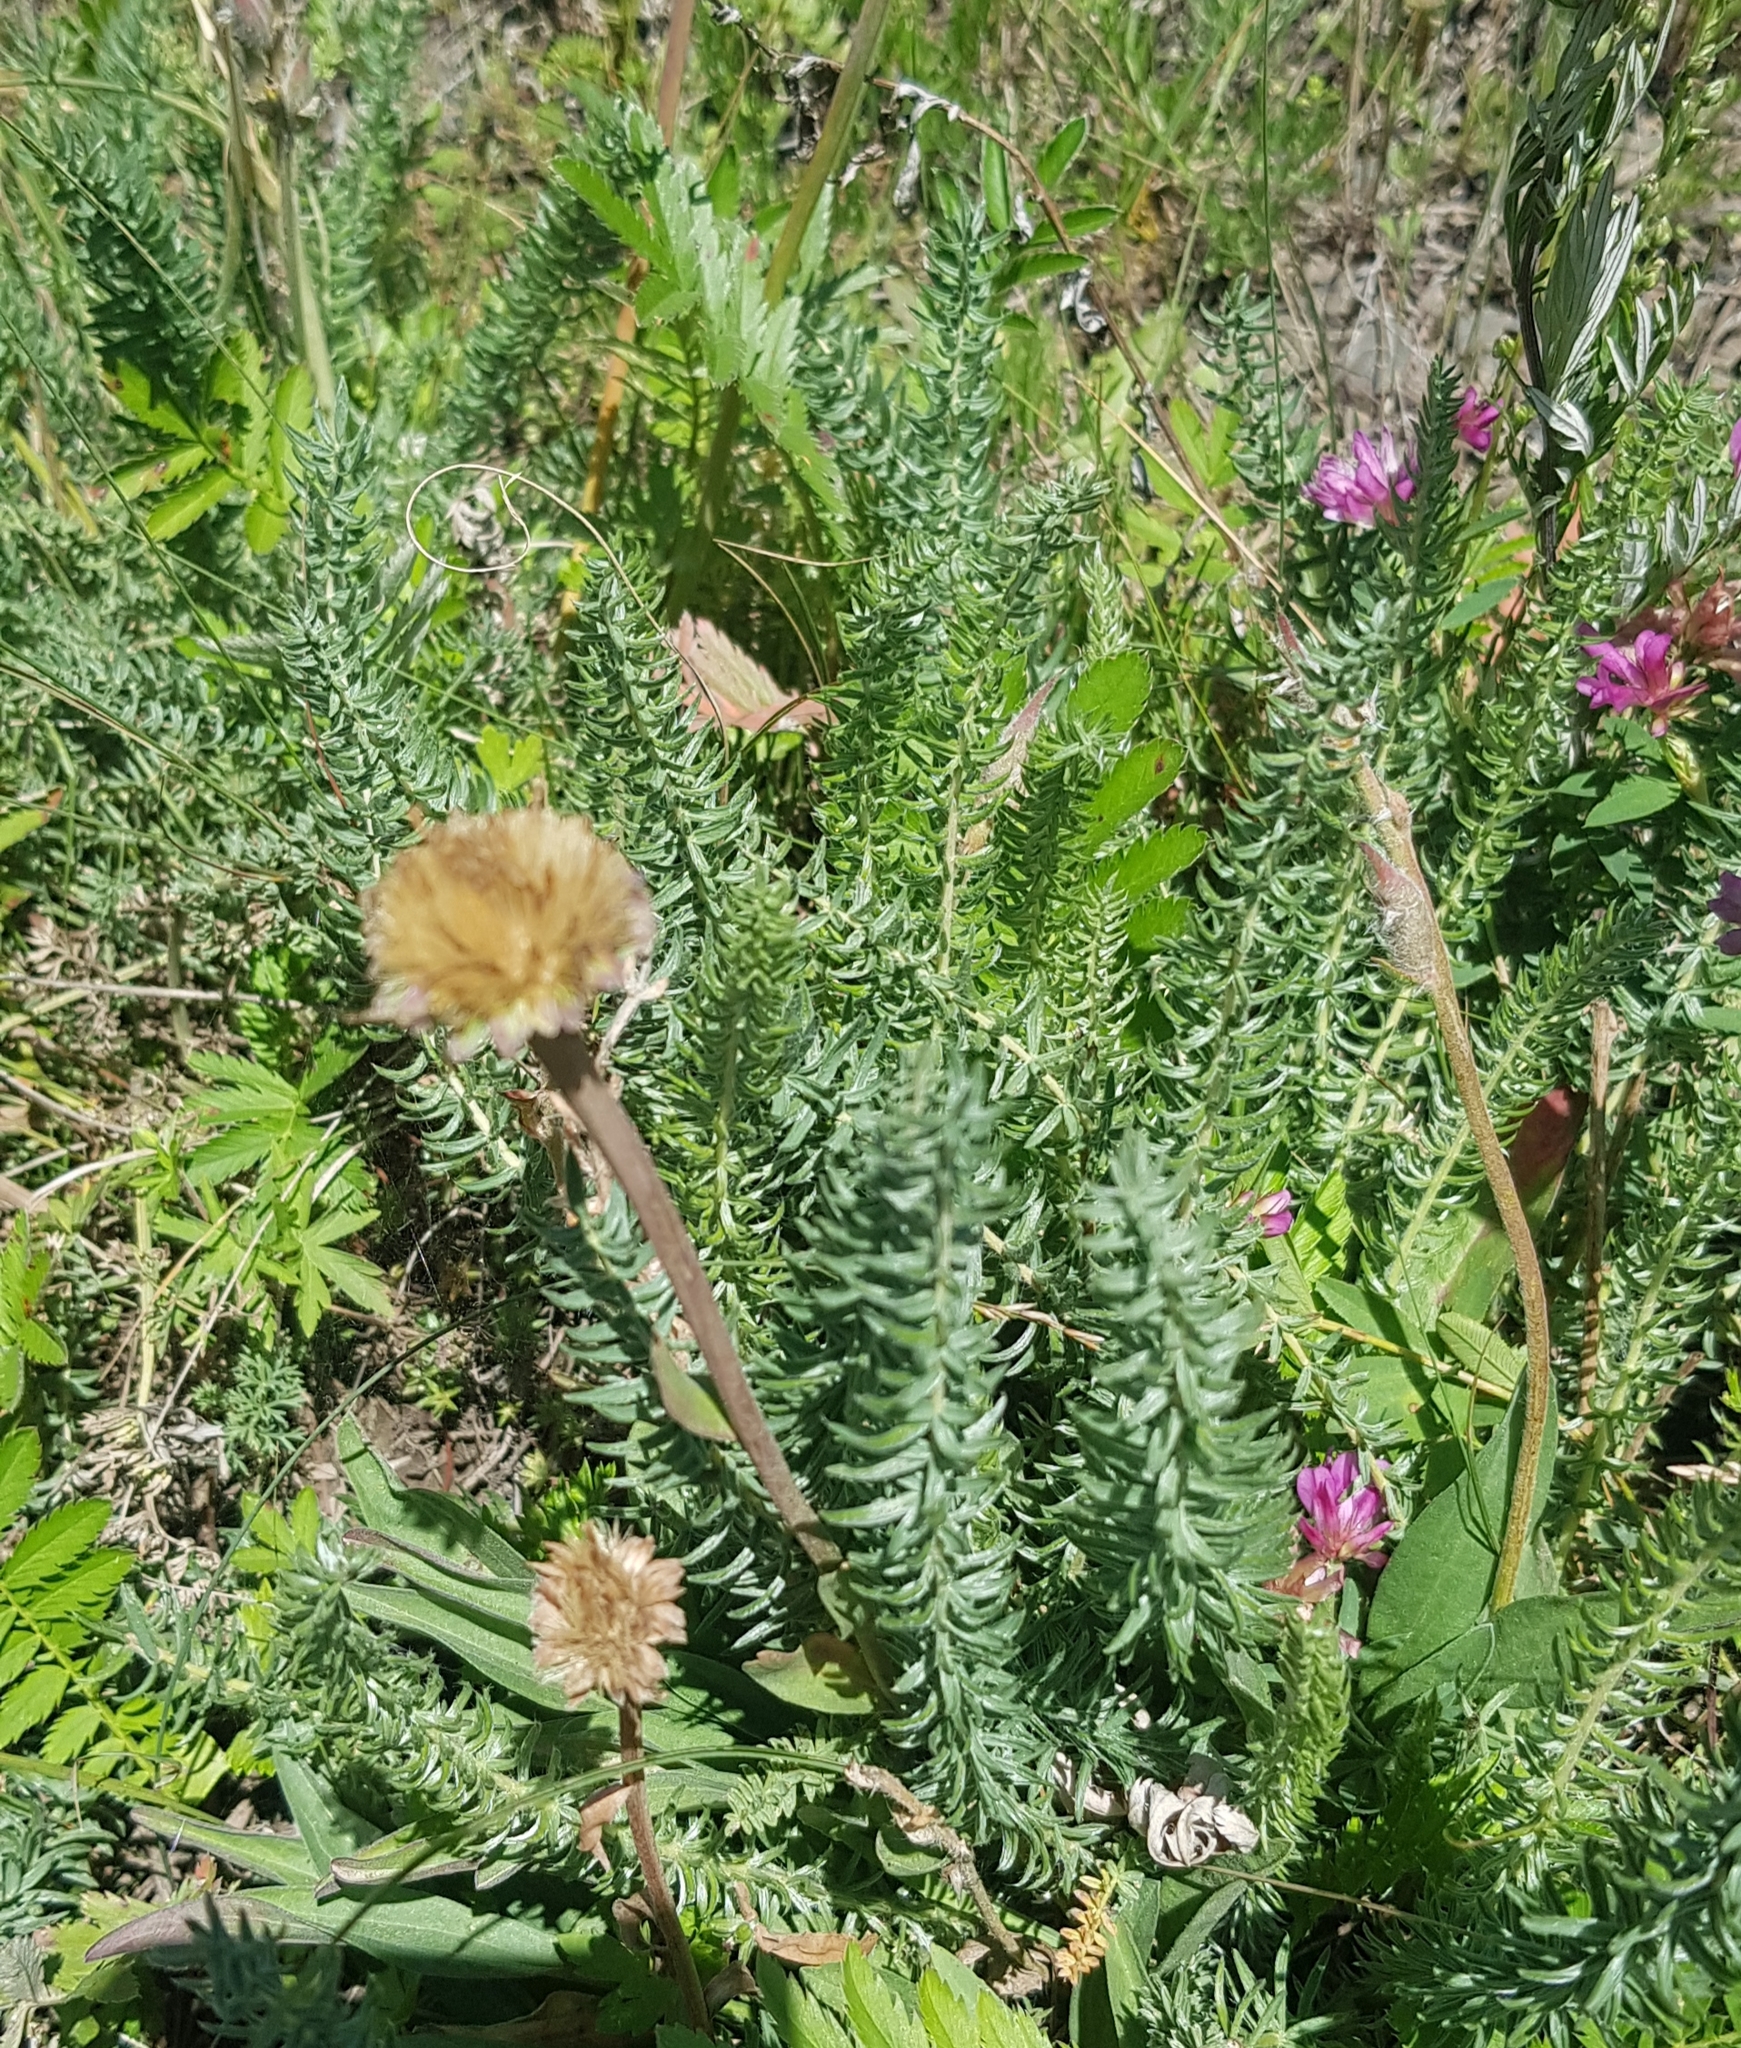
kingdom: Plantae
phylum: Tracheophyta
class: Magnoliopsida
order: Fabales
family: Fabaceae
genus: Oxytropis
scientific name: Oxytropis myriophylla
